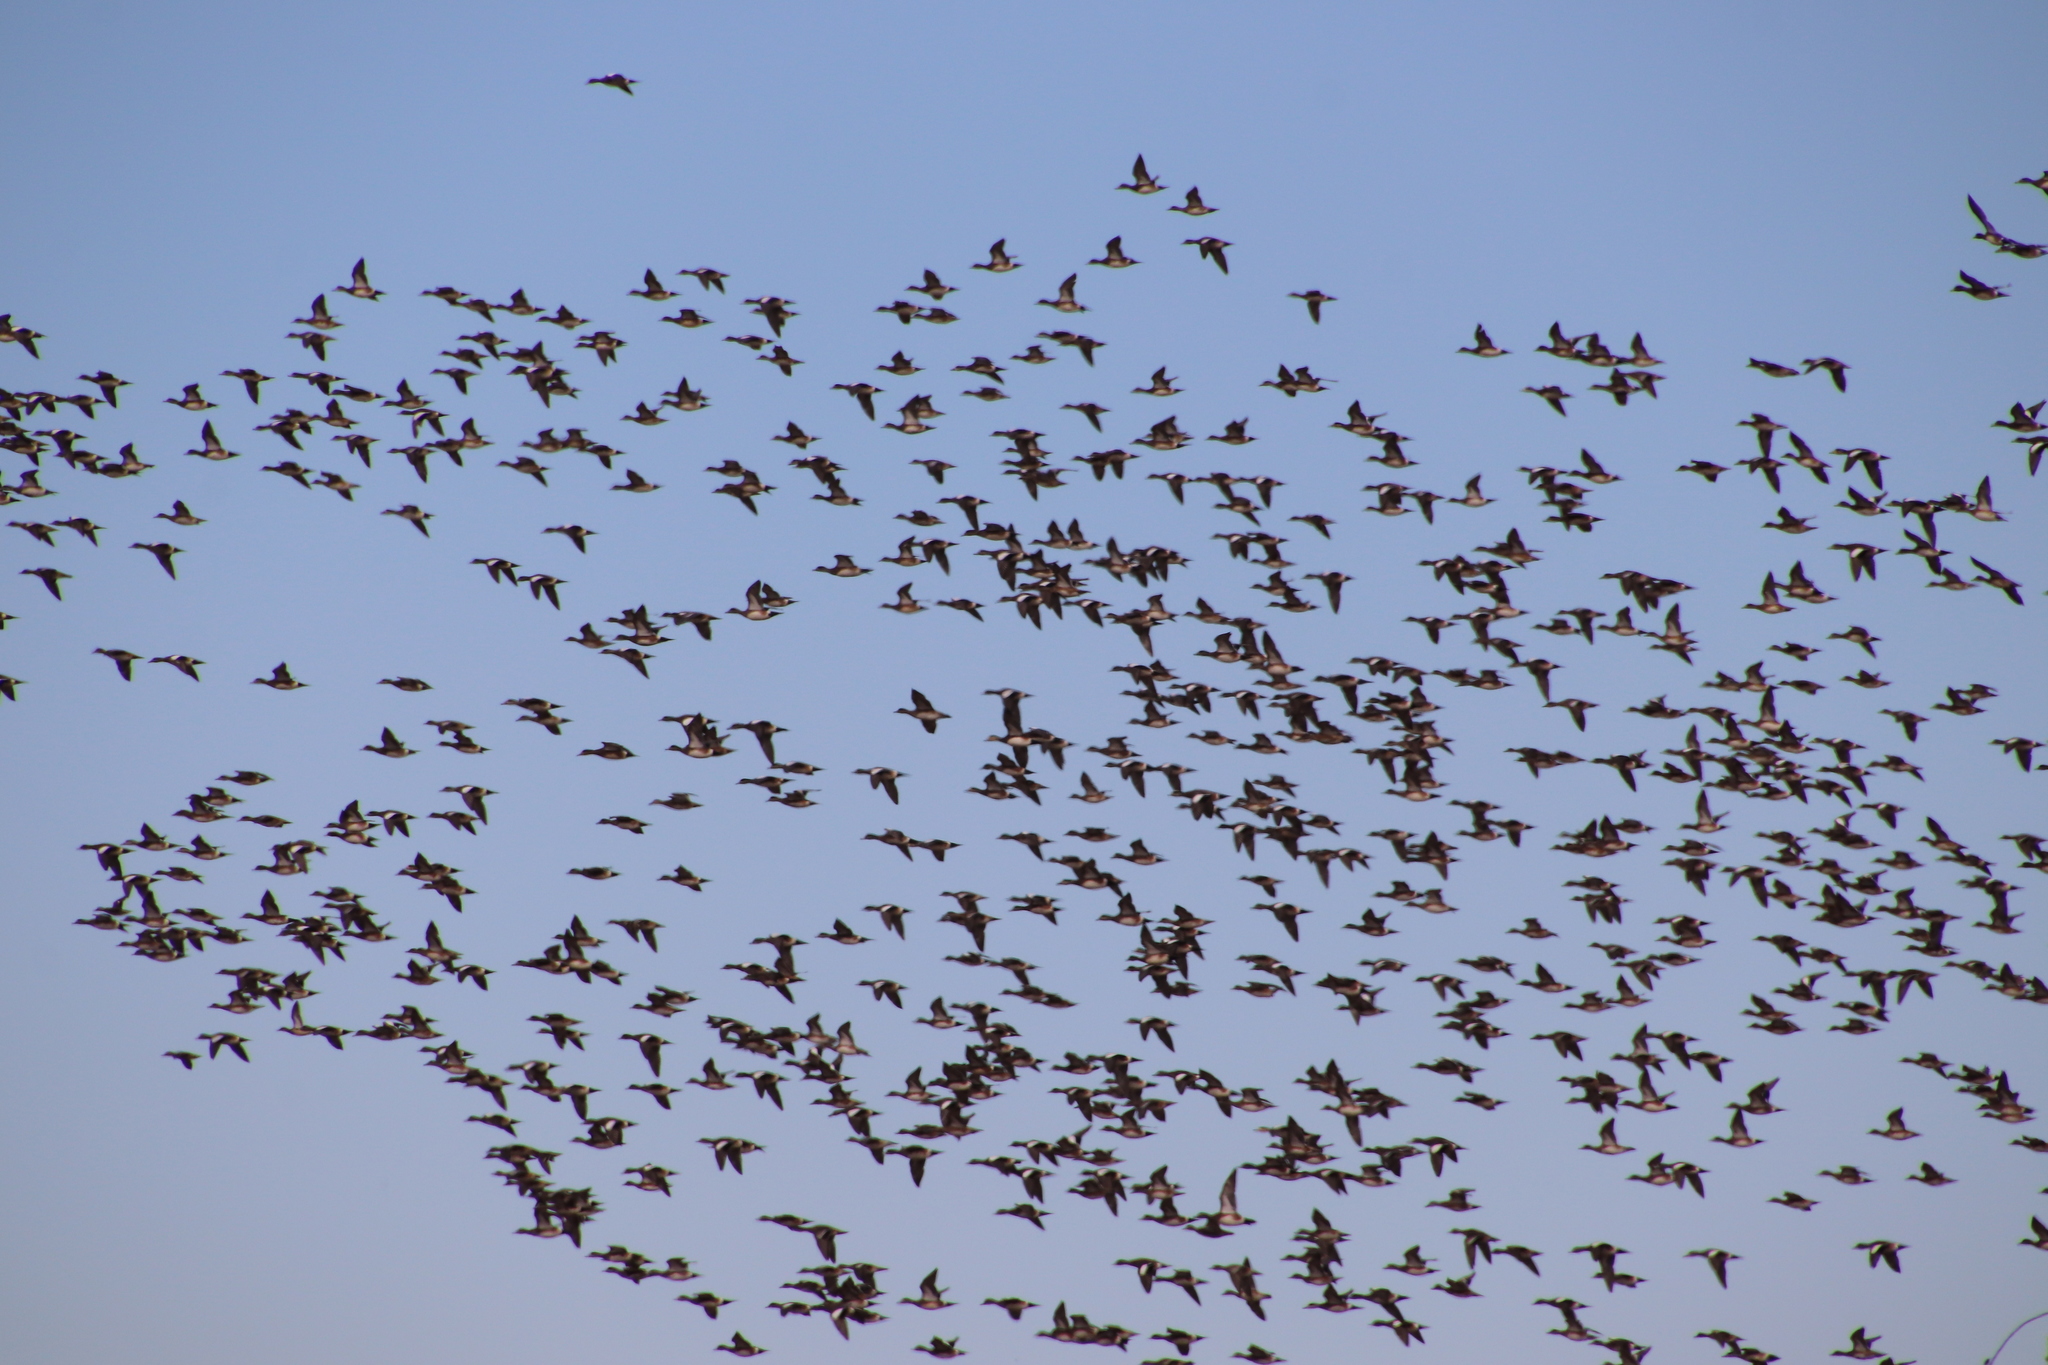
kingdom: Animalia
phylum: Chordata
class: Aves
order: Anseriformes
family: Anatidae
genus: Mareca
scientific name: Mareca americana
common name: American wigeon
